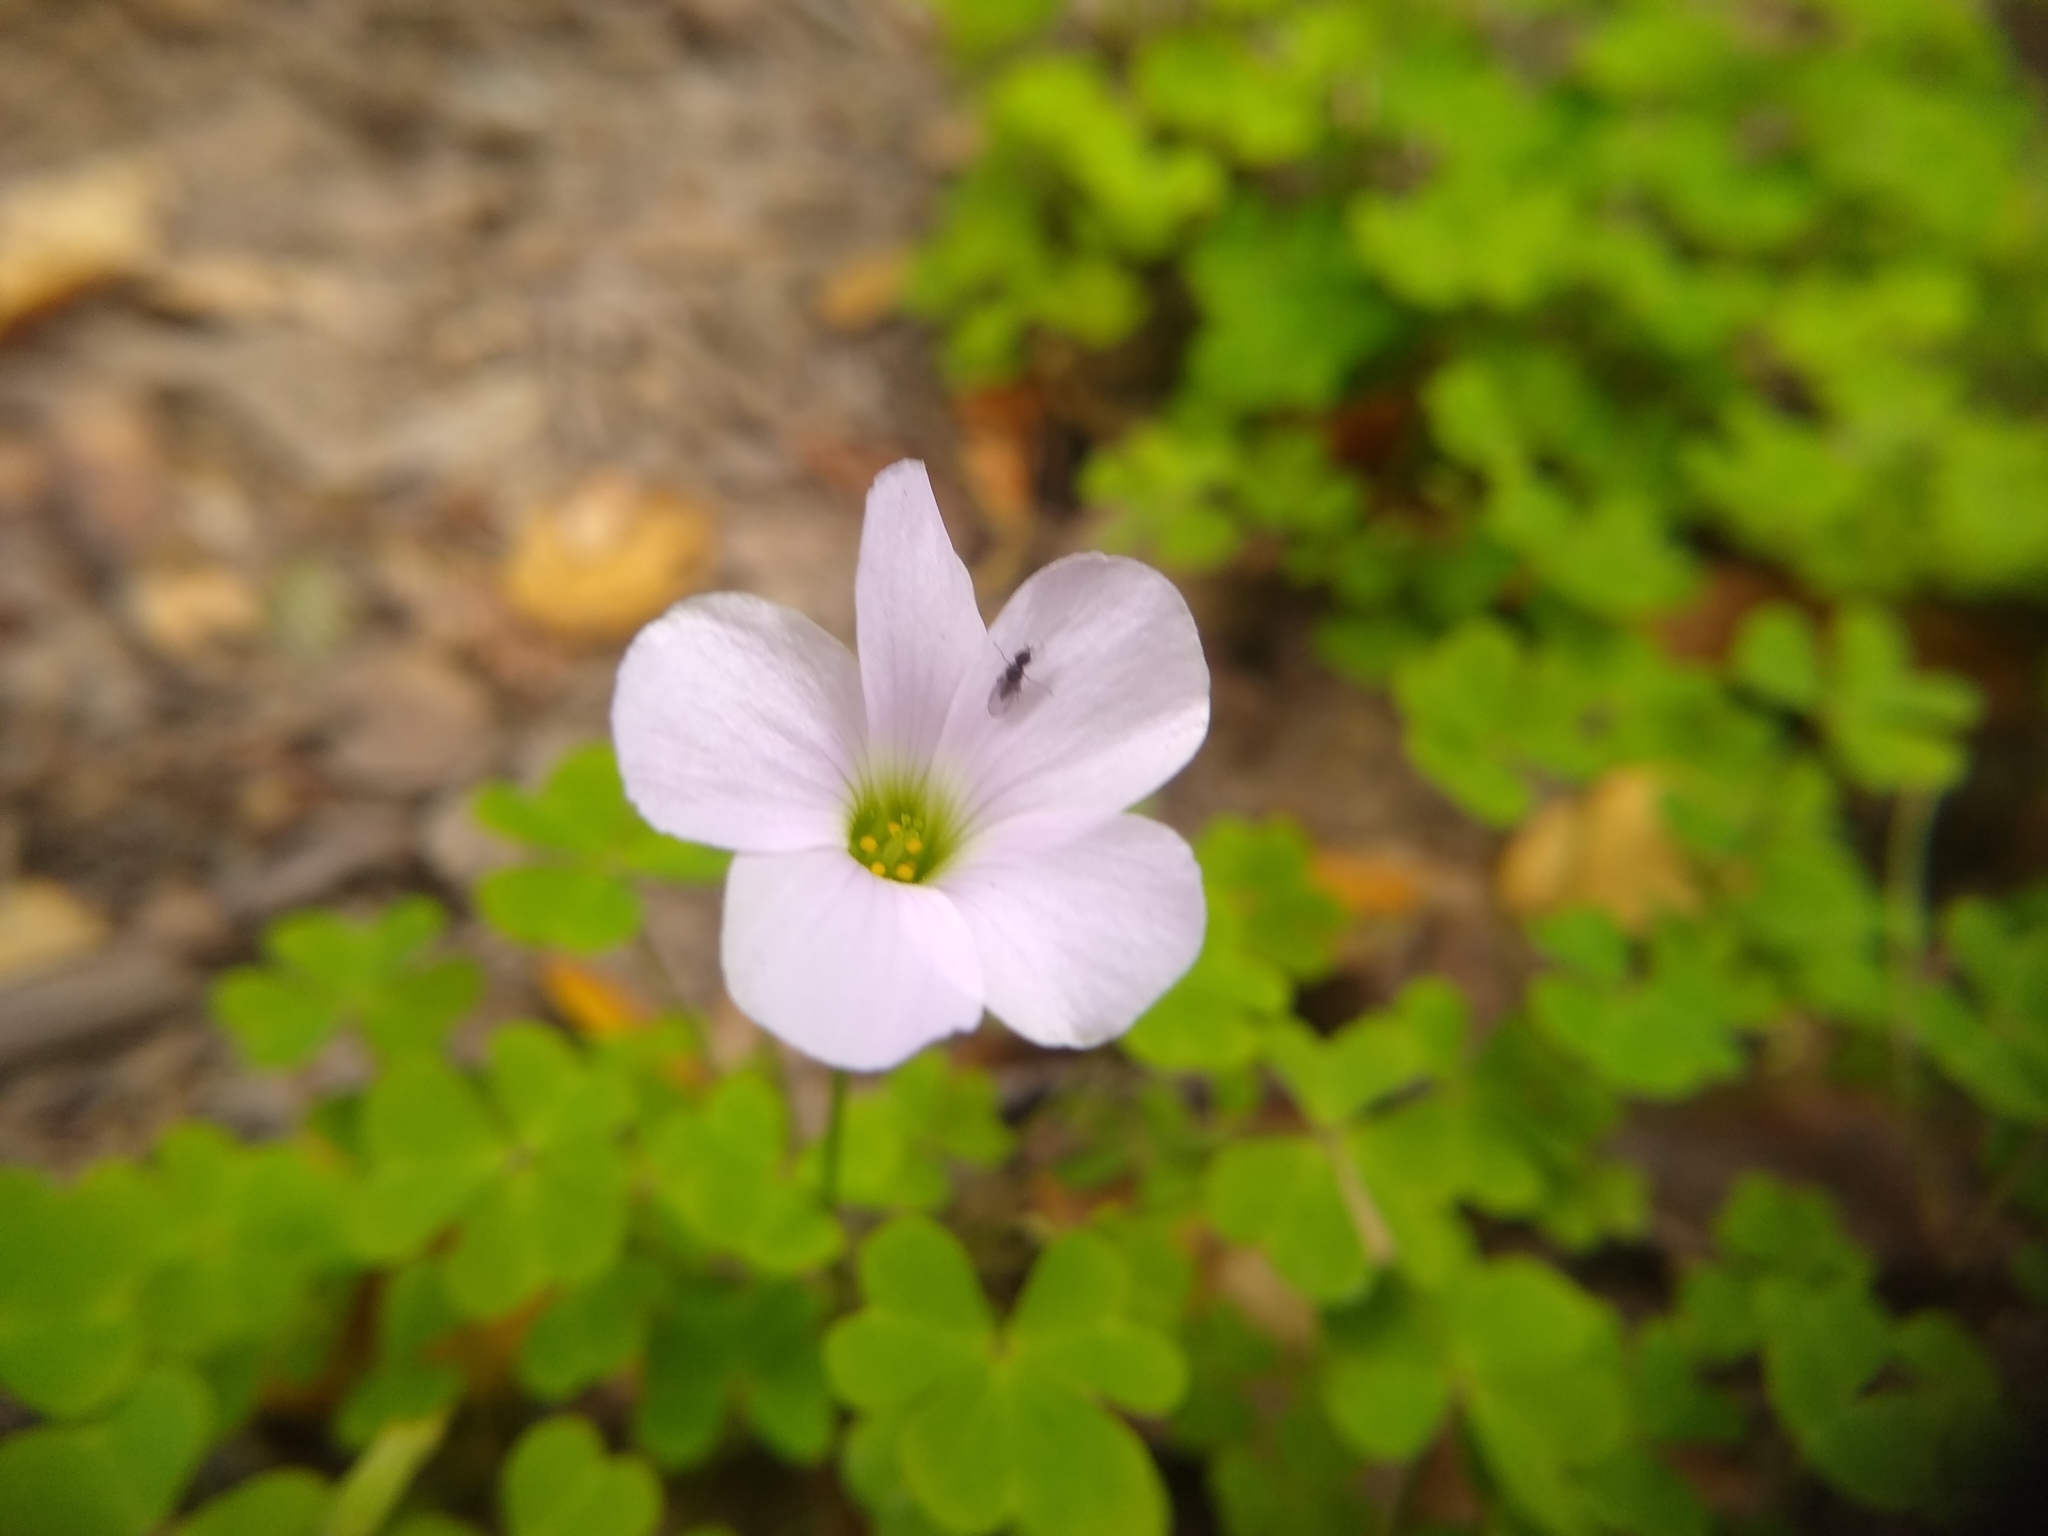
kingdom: Plantae
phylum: Tracheophyta
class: Magnoliopsida
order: Oxalidales
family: Oxalidaceae
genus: Oxalis
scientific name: Oxalis incarnata
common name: Pale pink-sorrel
